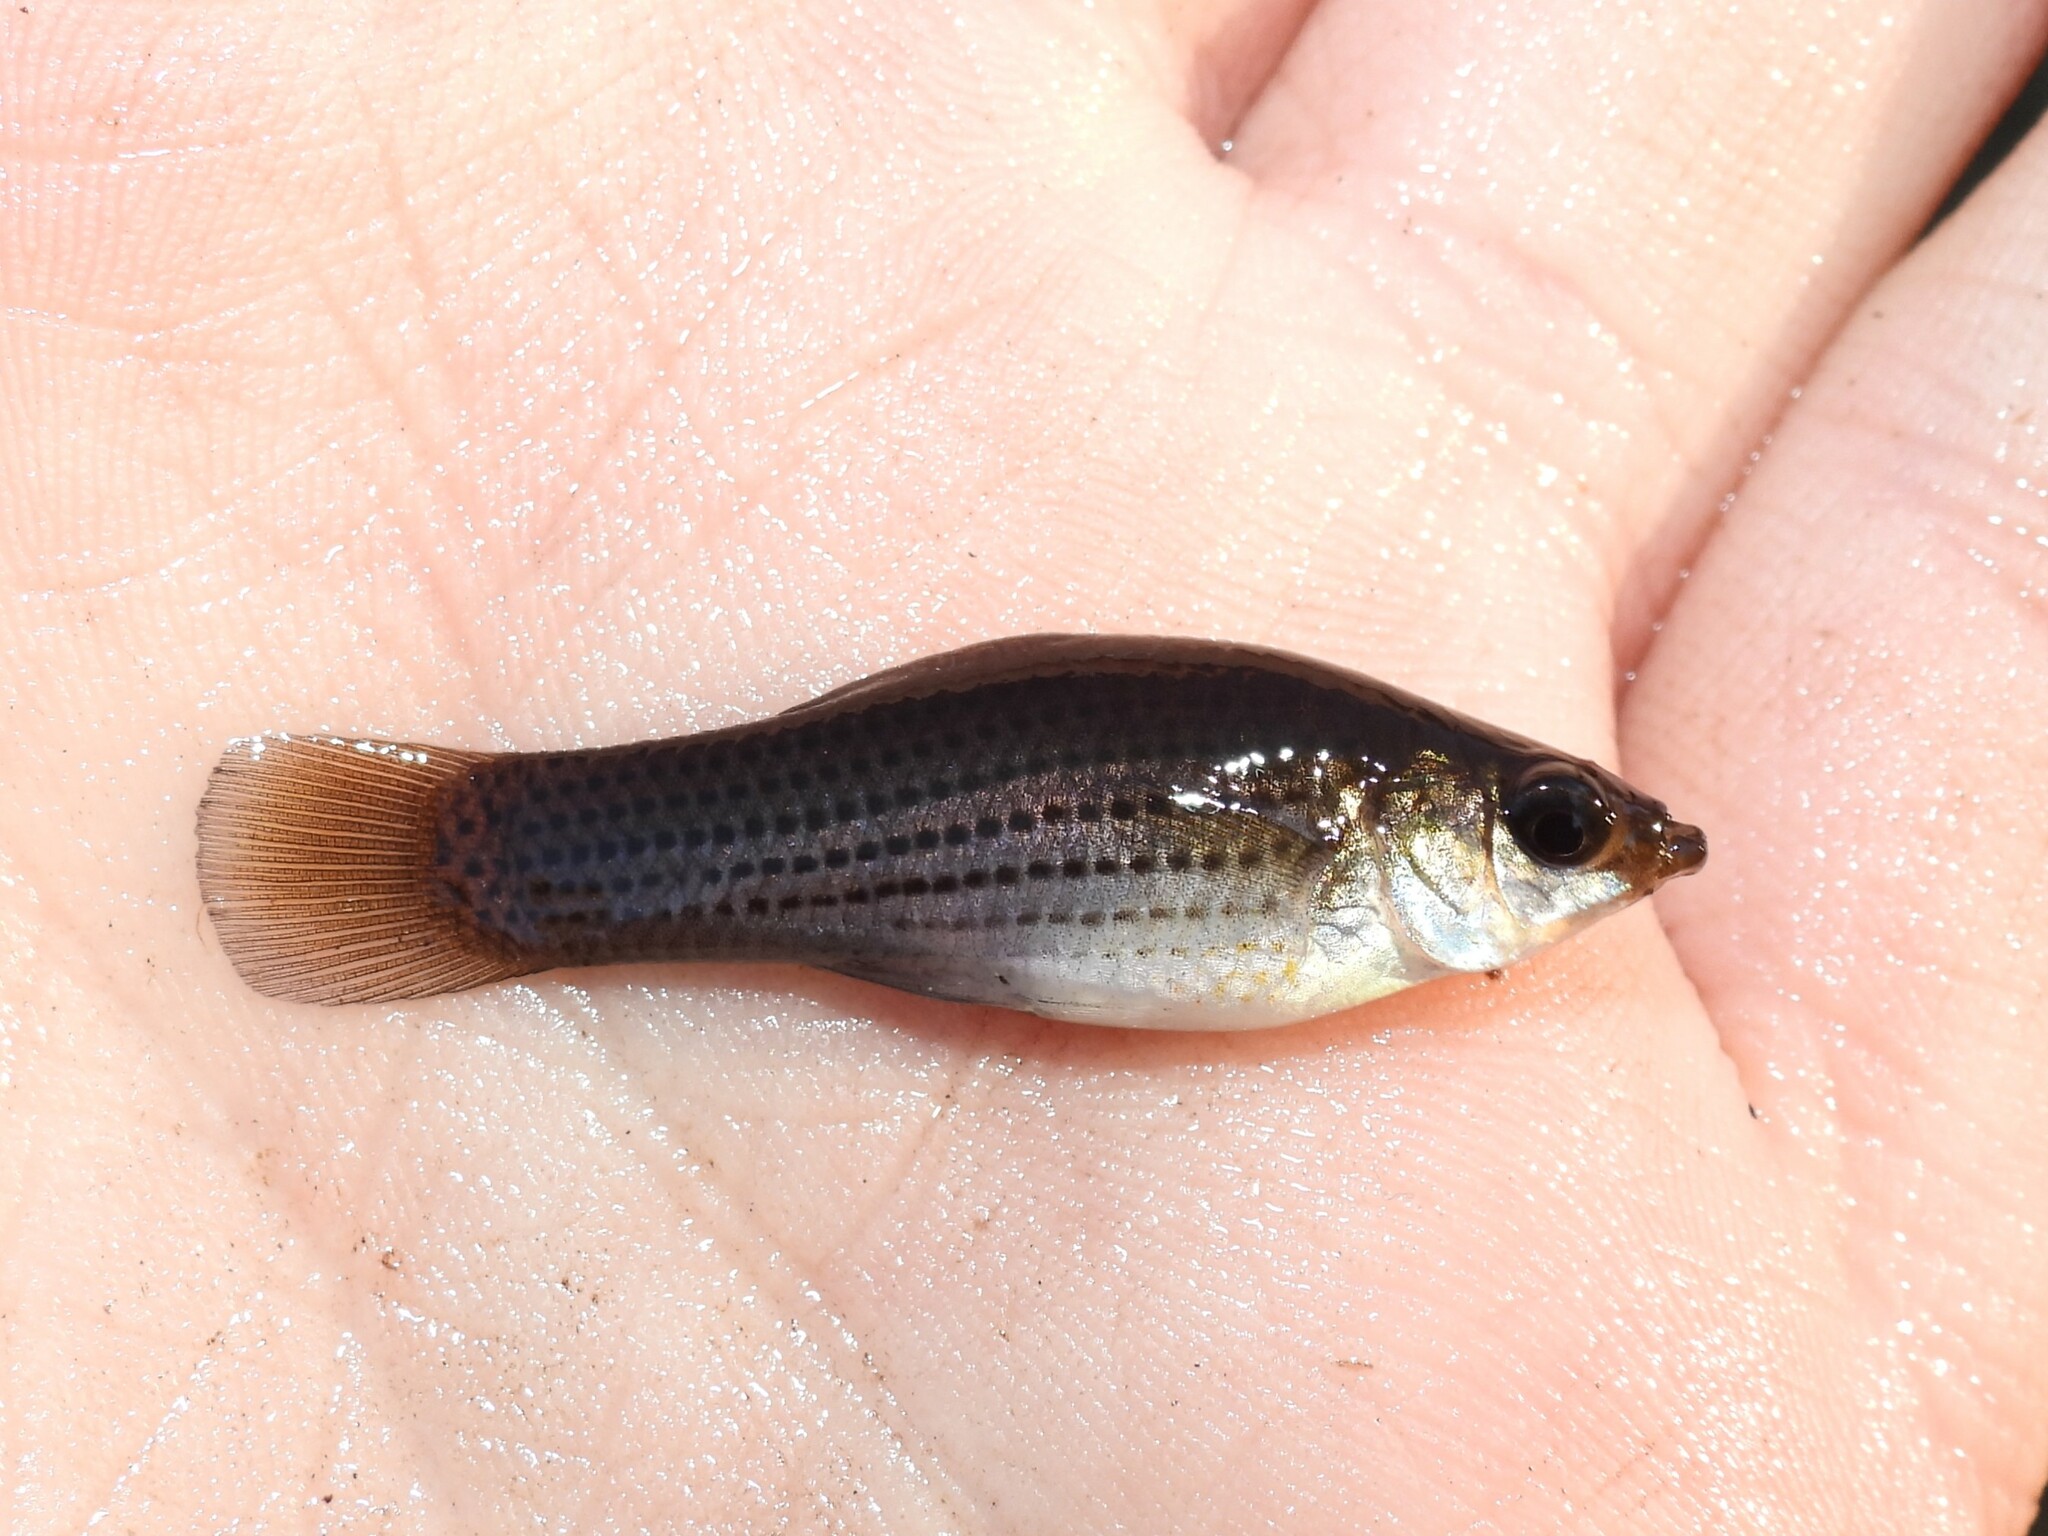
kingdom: Animalia
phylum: Chordata
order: Cyprinodontiformes
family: Poeciliidae
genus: Poecilia
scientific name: Poecilia latipinna
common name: Sailfin molly
